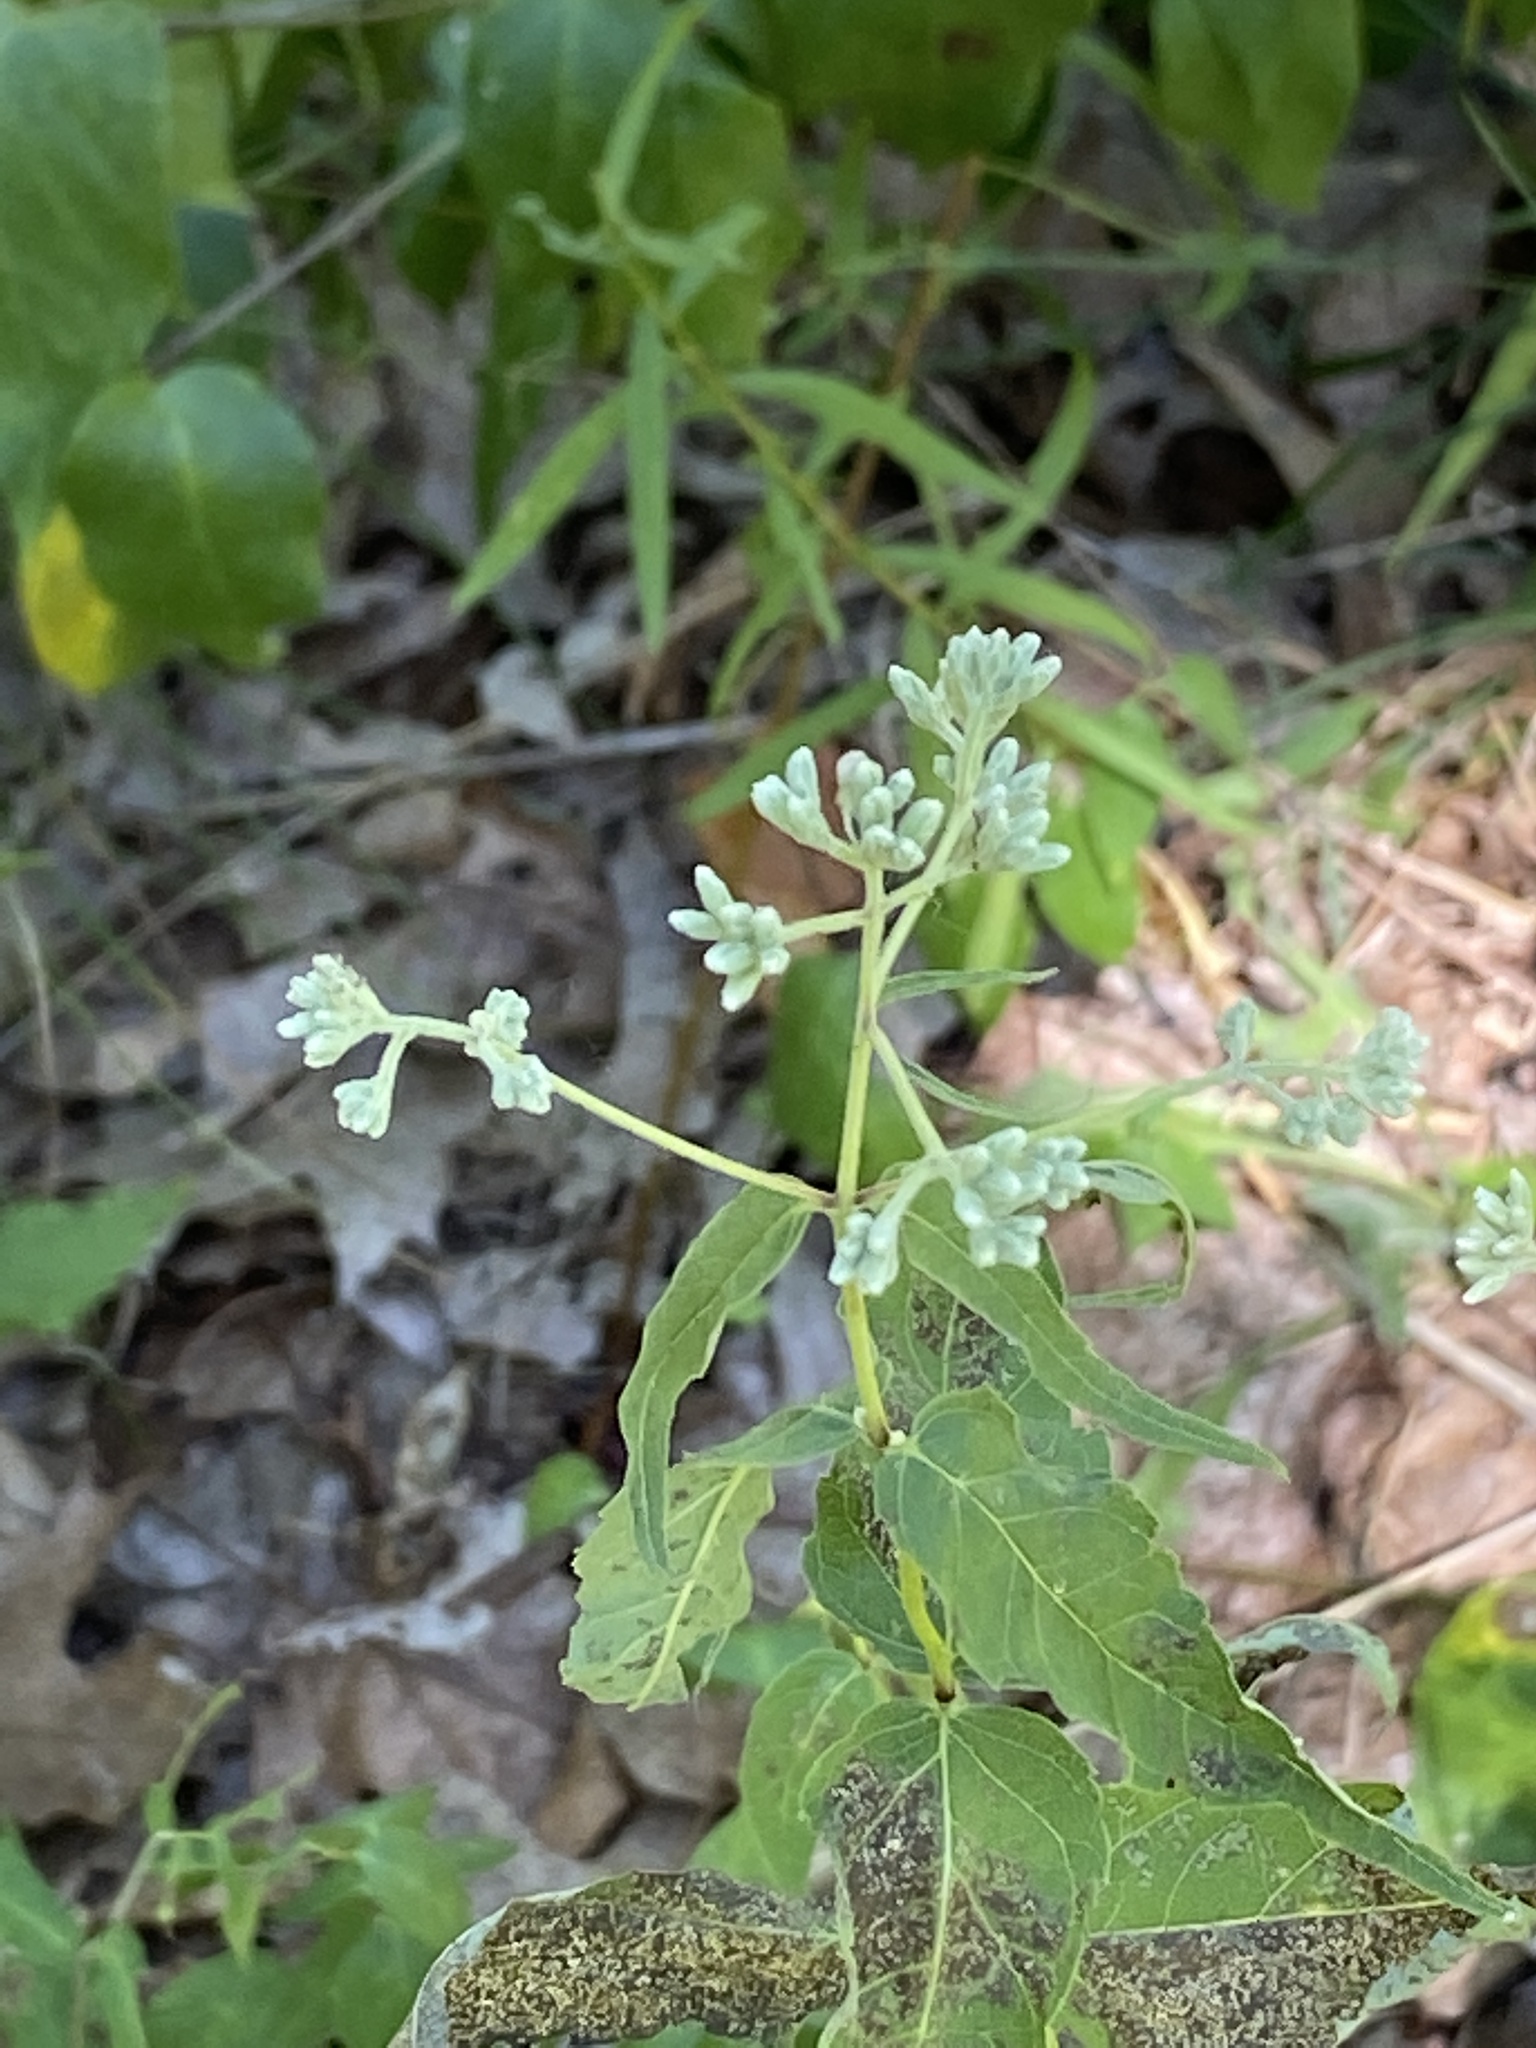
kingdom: Plantae
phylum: Tracheophyta
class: Magnoliopsida
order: Asterales
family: Asteraceae
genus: Eupatorium
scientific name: Eupatorium sessilifolium
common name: Upland boneset
